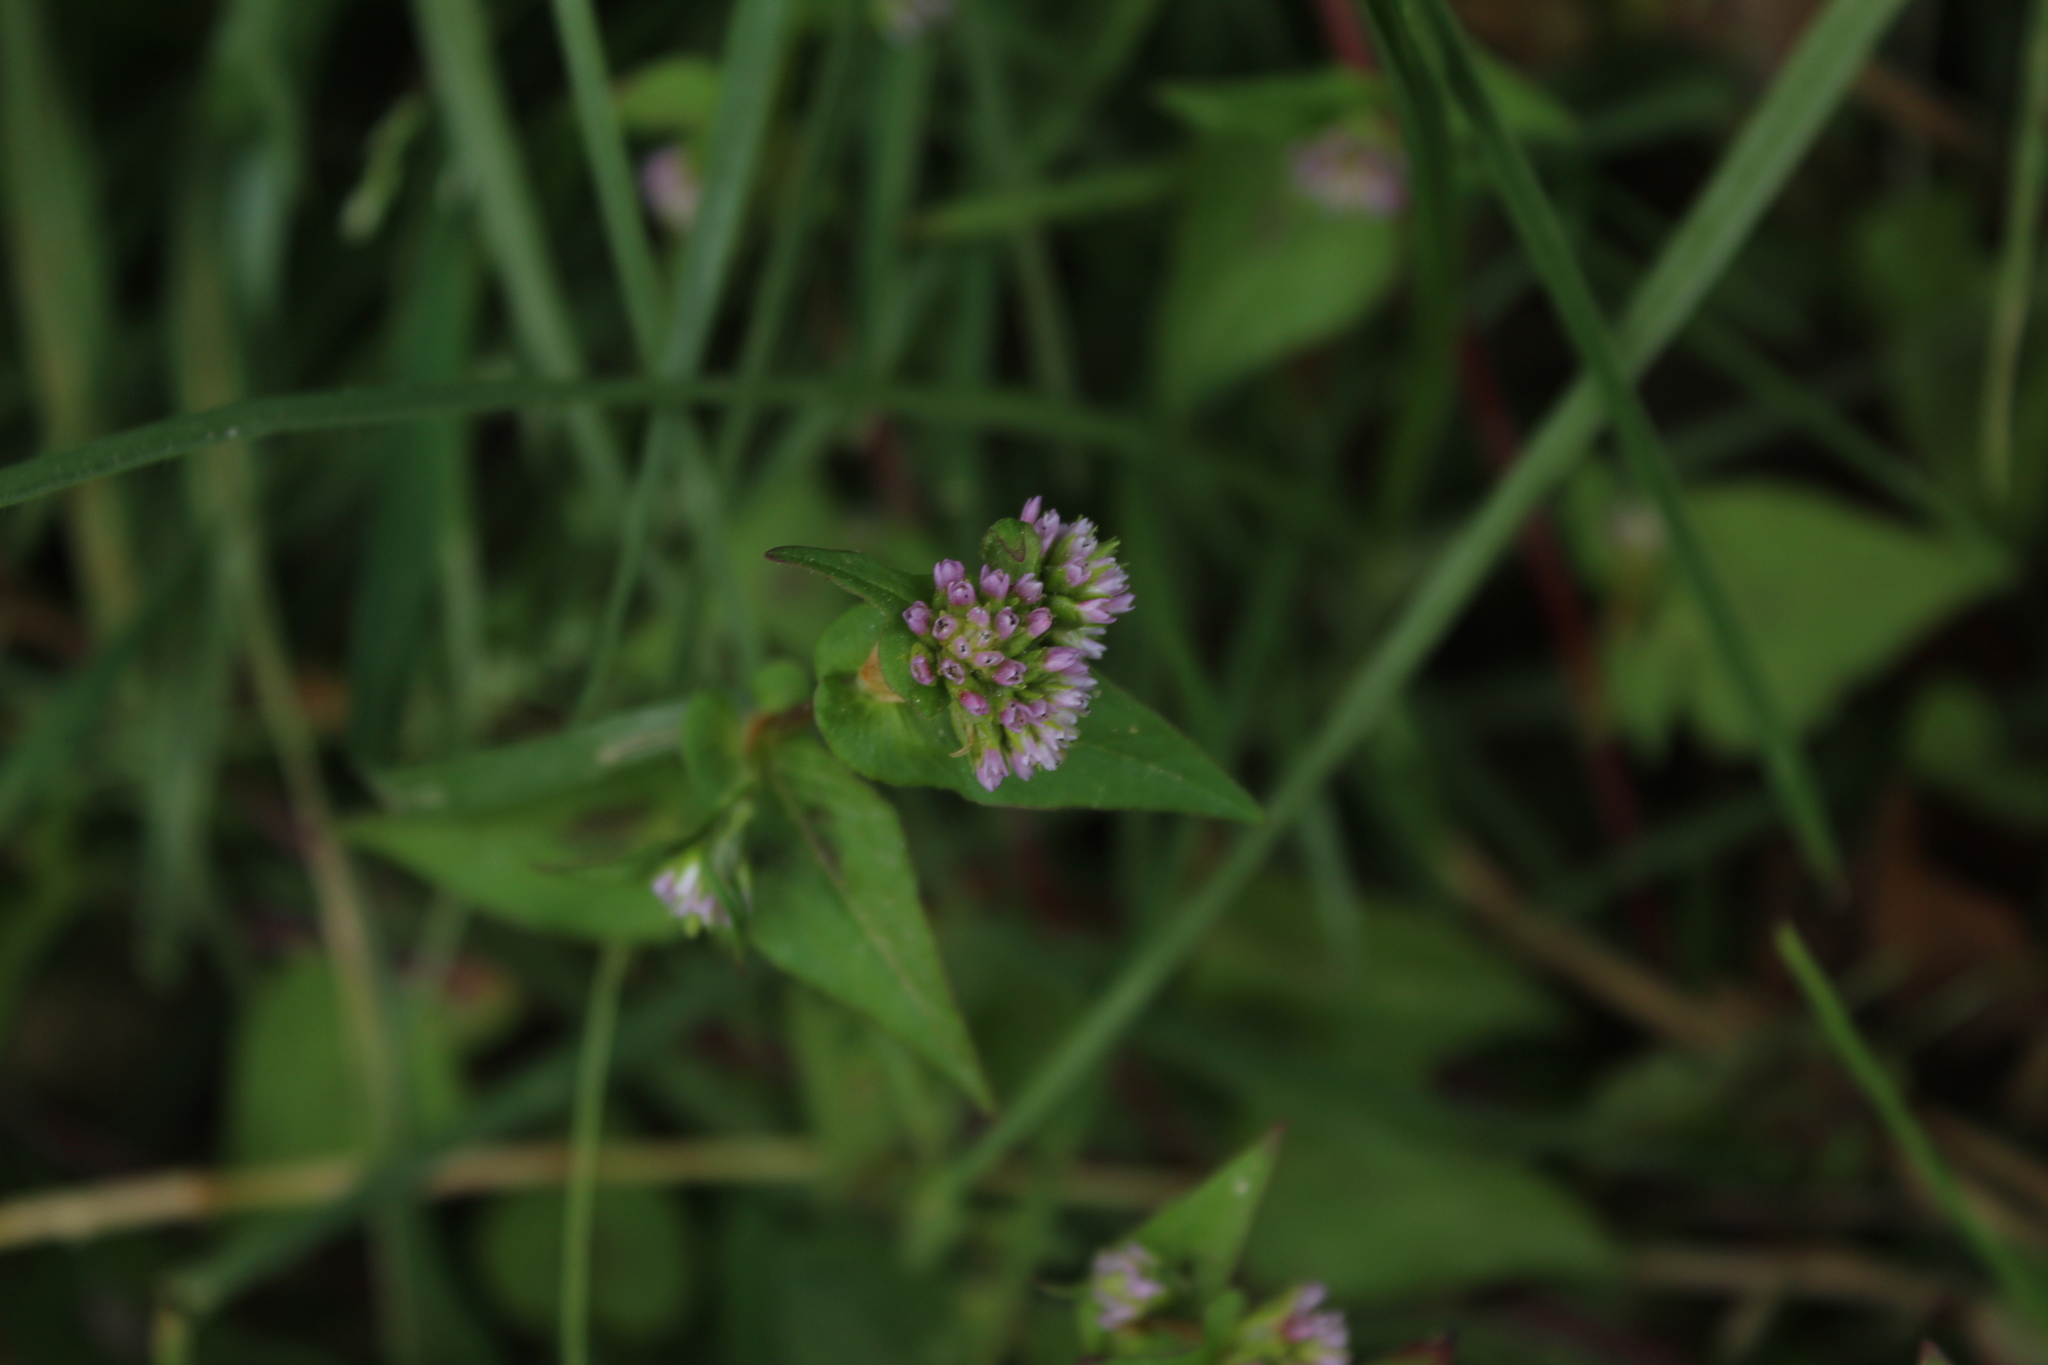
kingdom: Plantae
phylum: Tracheophyta
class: Magnoliopsida
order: Caryophyllales
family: Polygonaceae
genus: Persicaria
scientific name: Persicaria nepalensis
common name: Nepal persicaria
